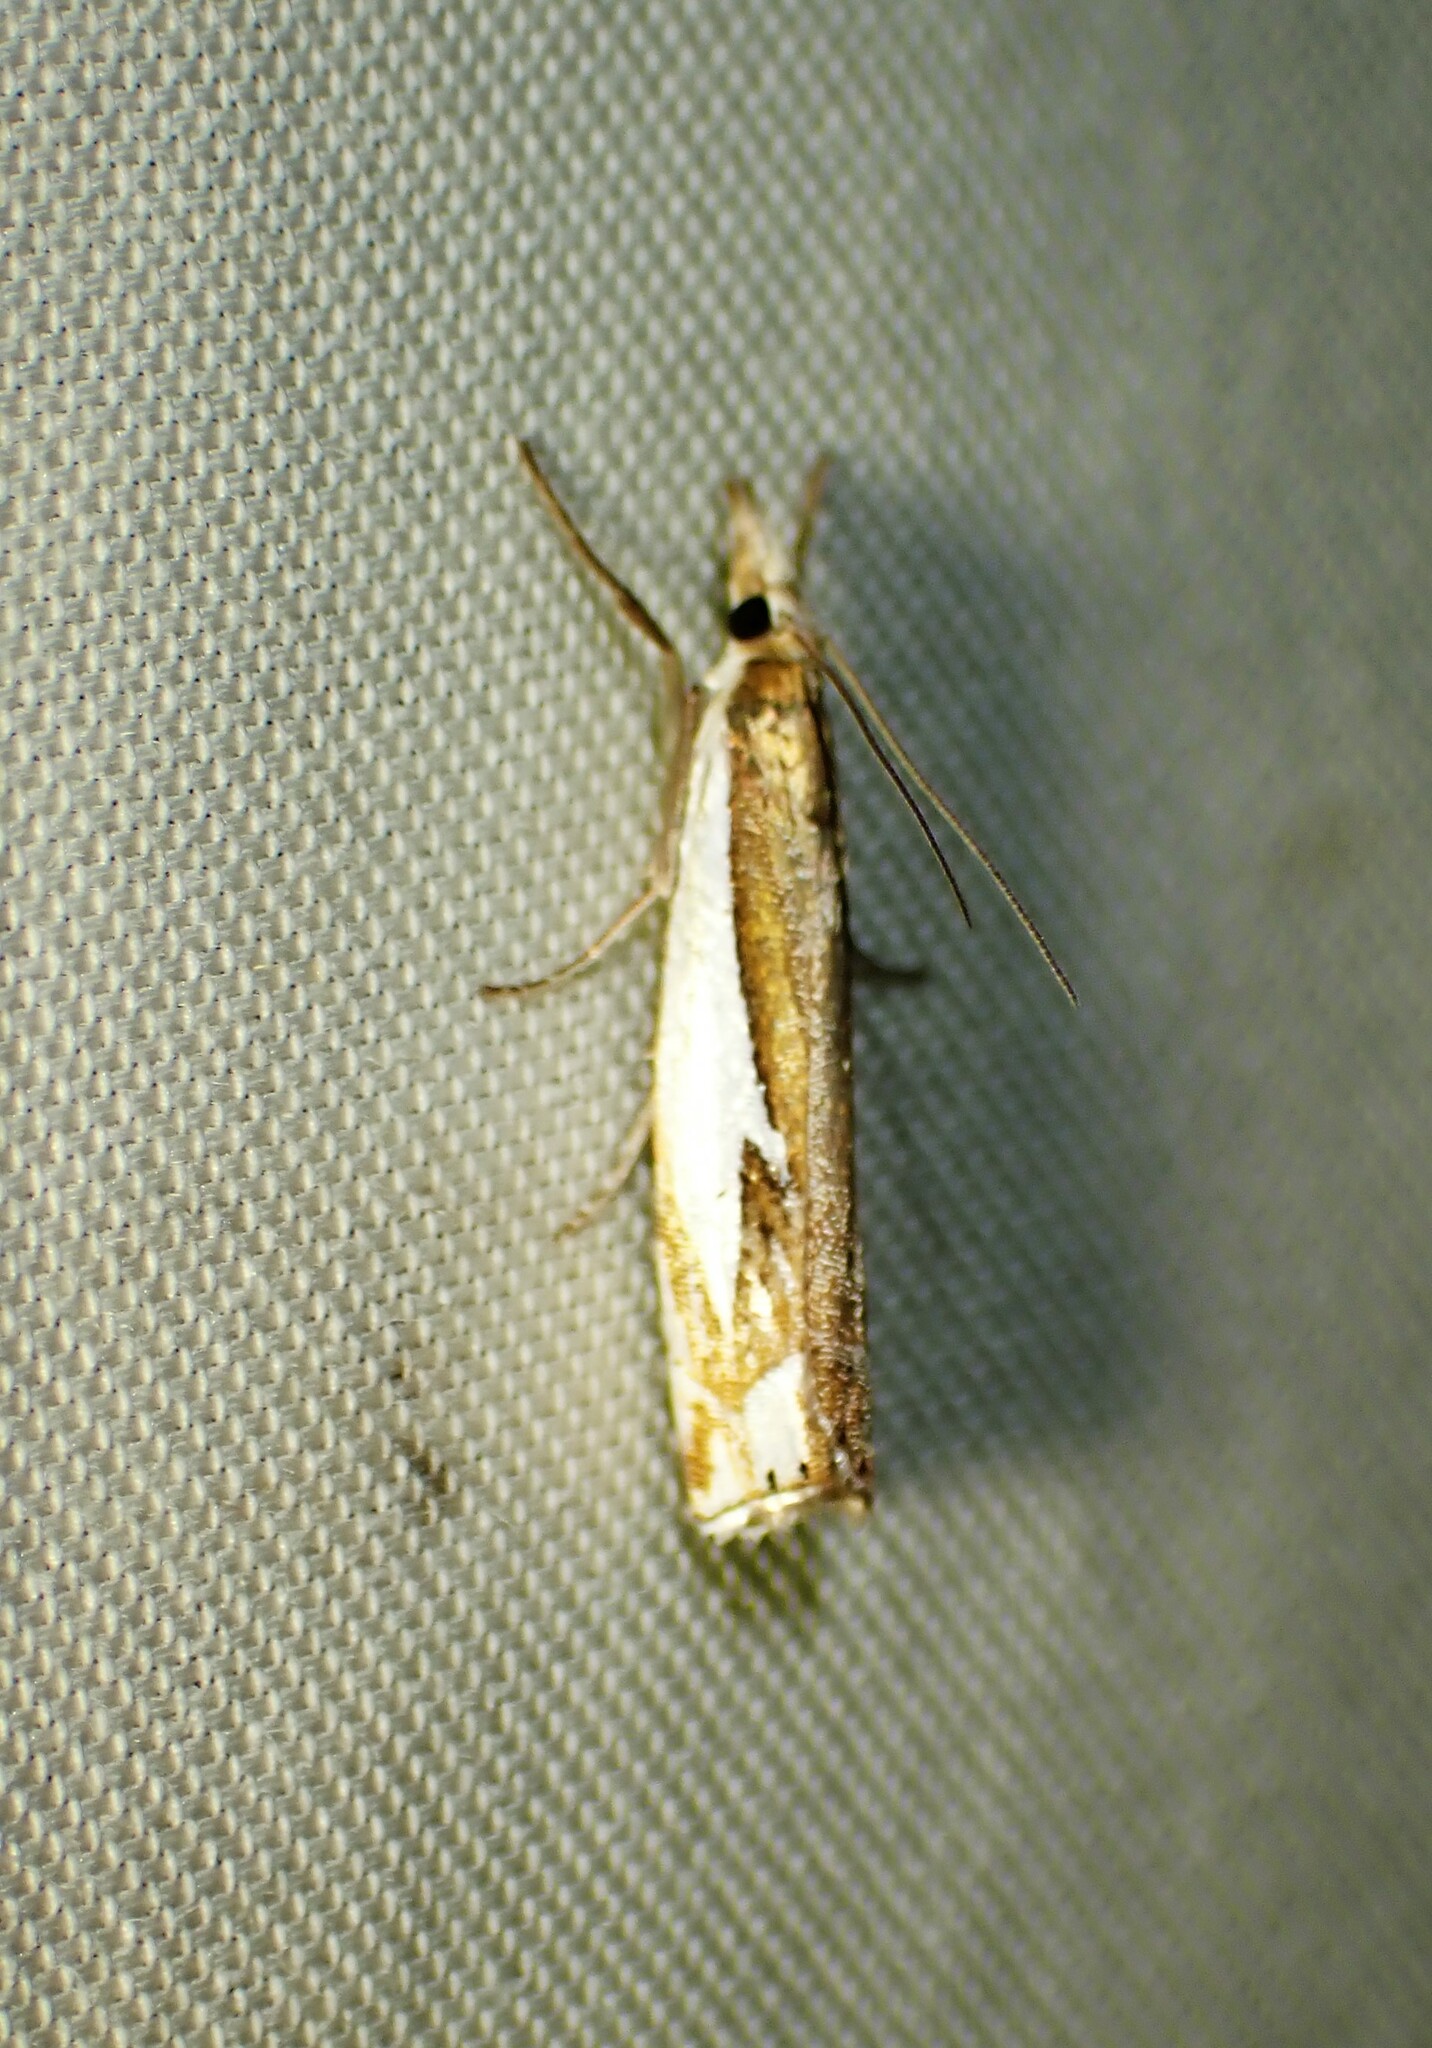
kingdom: Animalia
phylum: Arthropoda
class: Insecta
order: Lepidoptera
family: Crambidae
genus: Crambus
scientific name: Crambus bidens
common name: Forked grass-veneer
